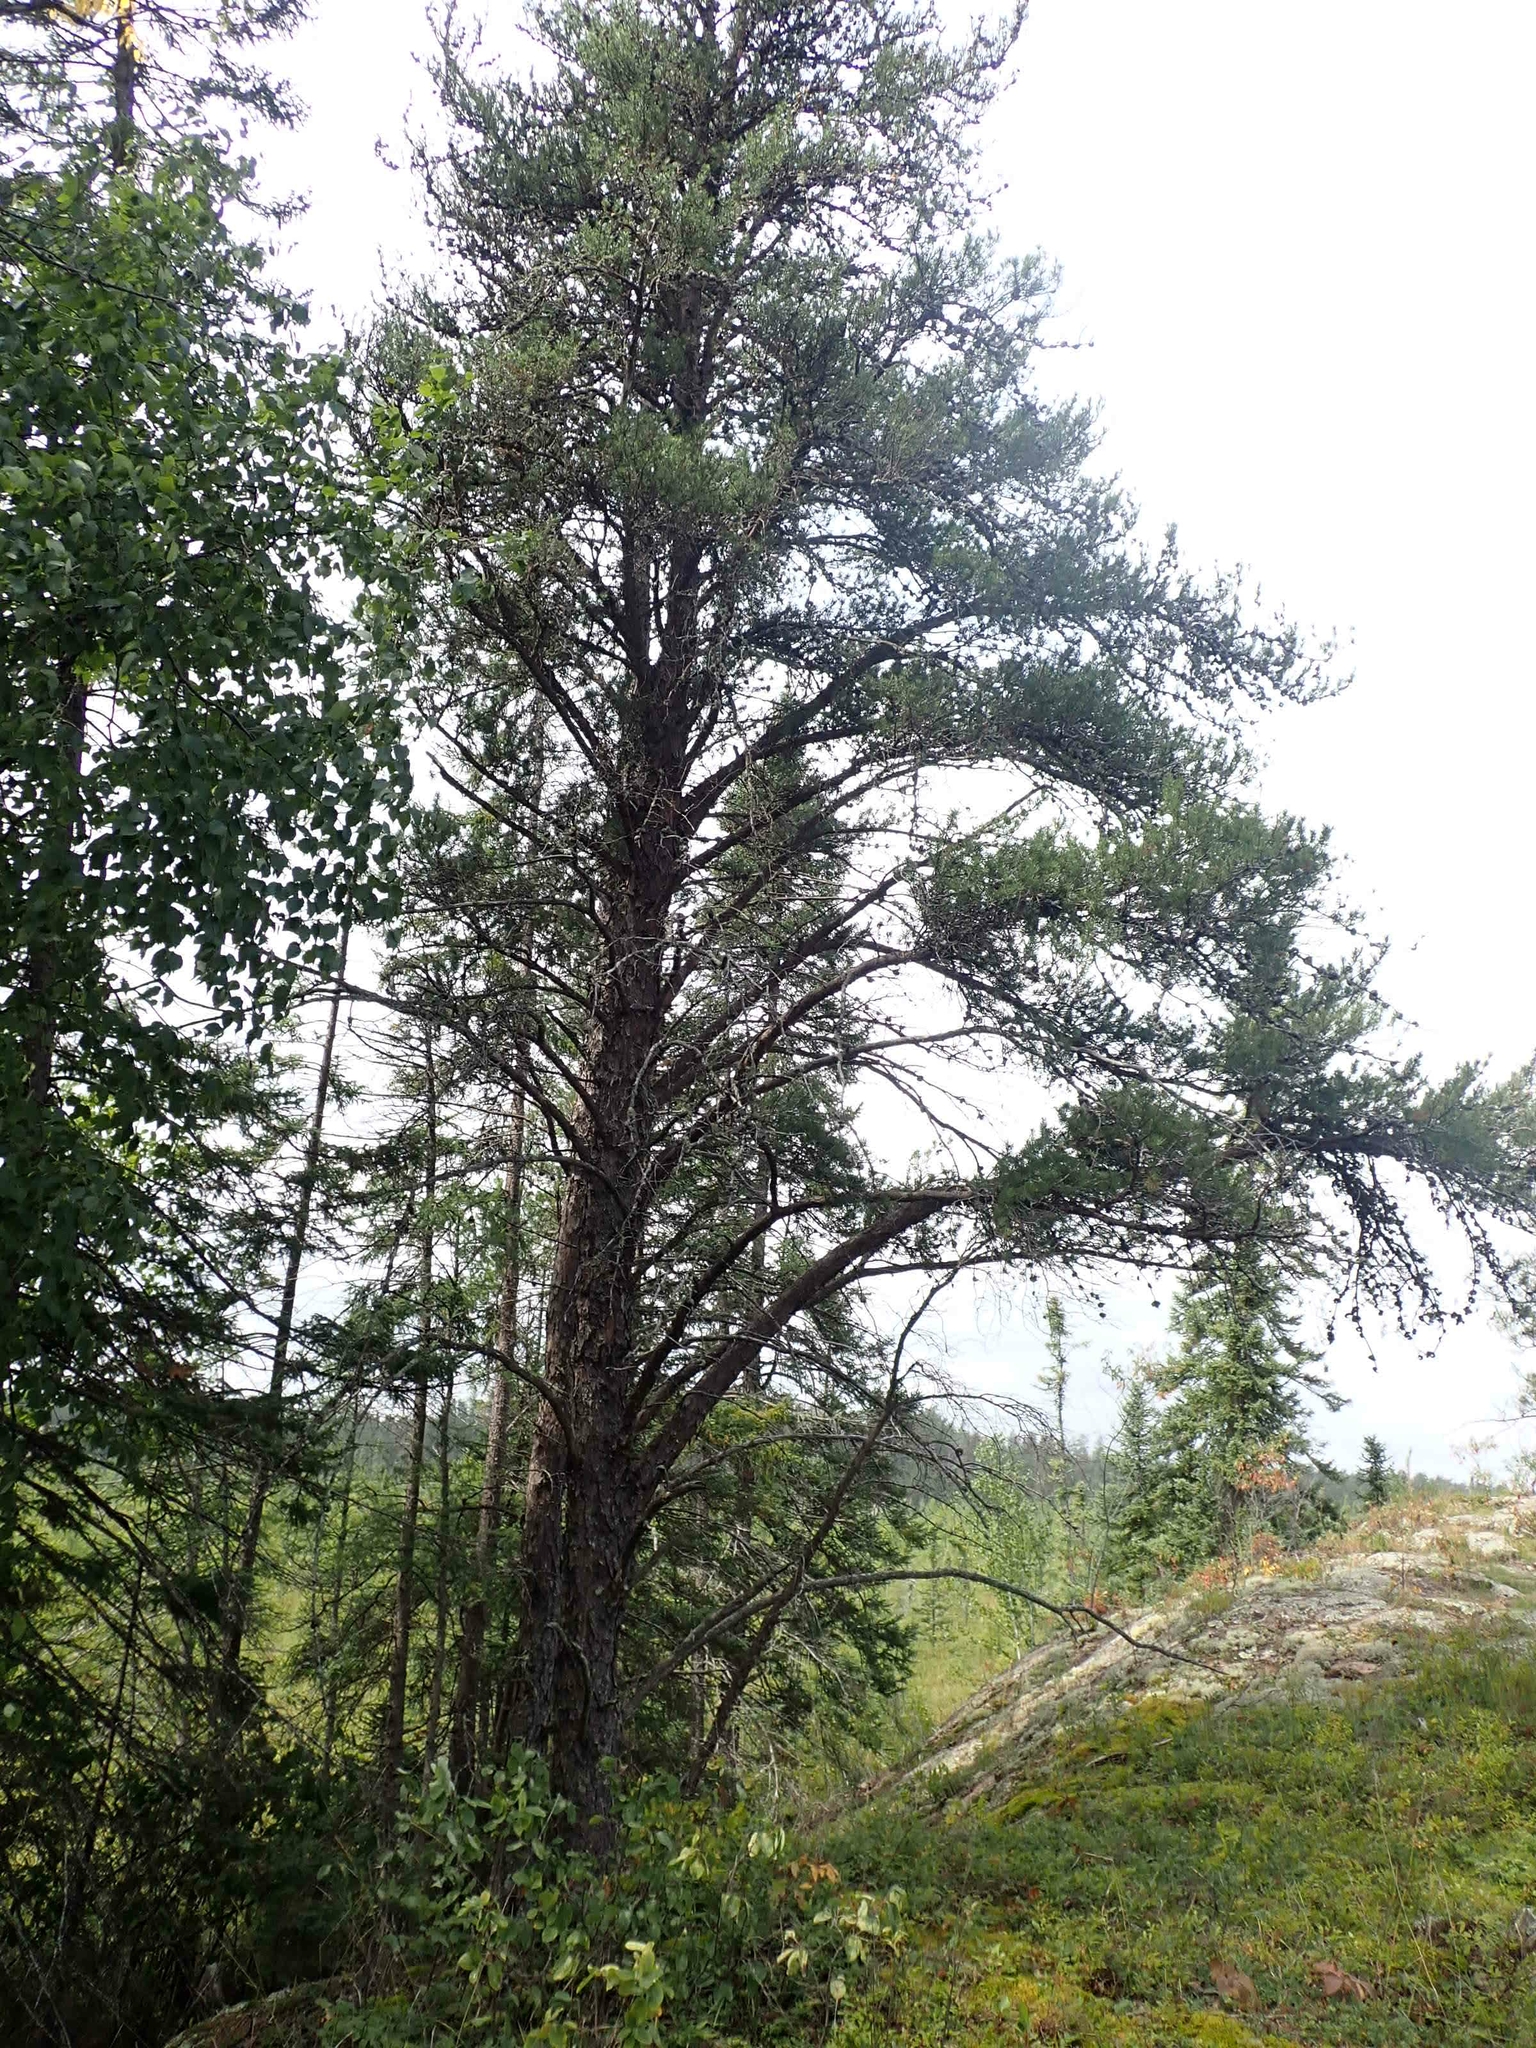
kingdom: Plantae
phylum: Tracheophyta
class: Pinopsida
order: Pinales
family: Pinaceae
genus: Pinus
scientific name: Pinus banksiana
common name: Jack pine
